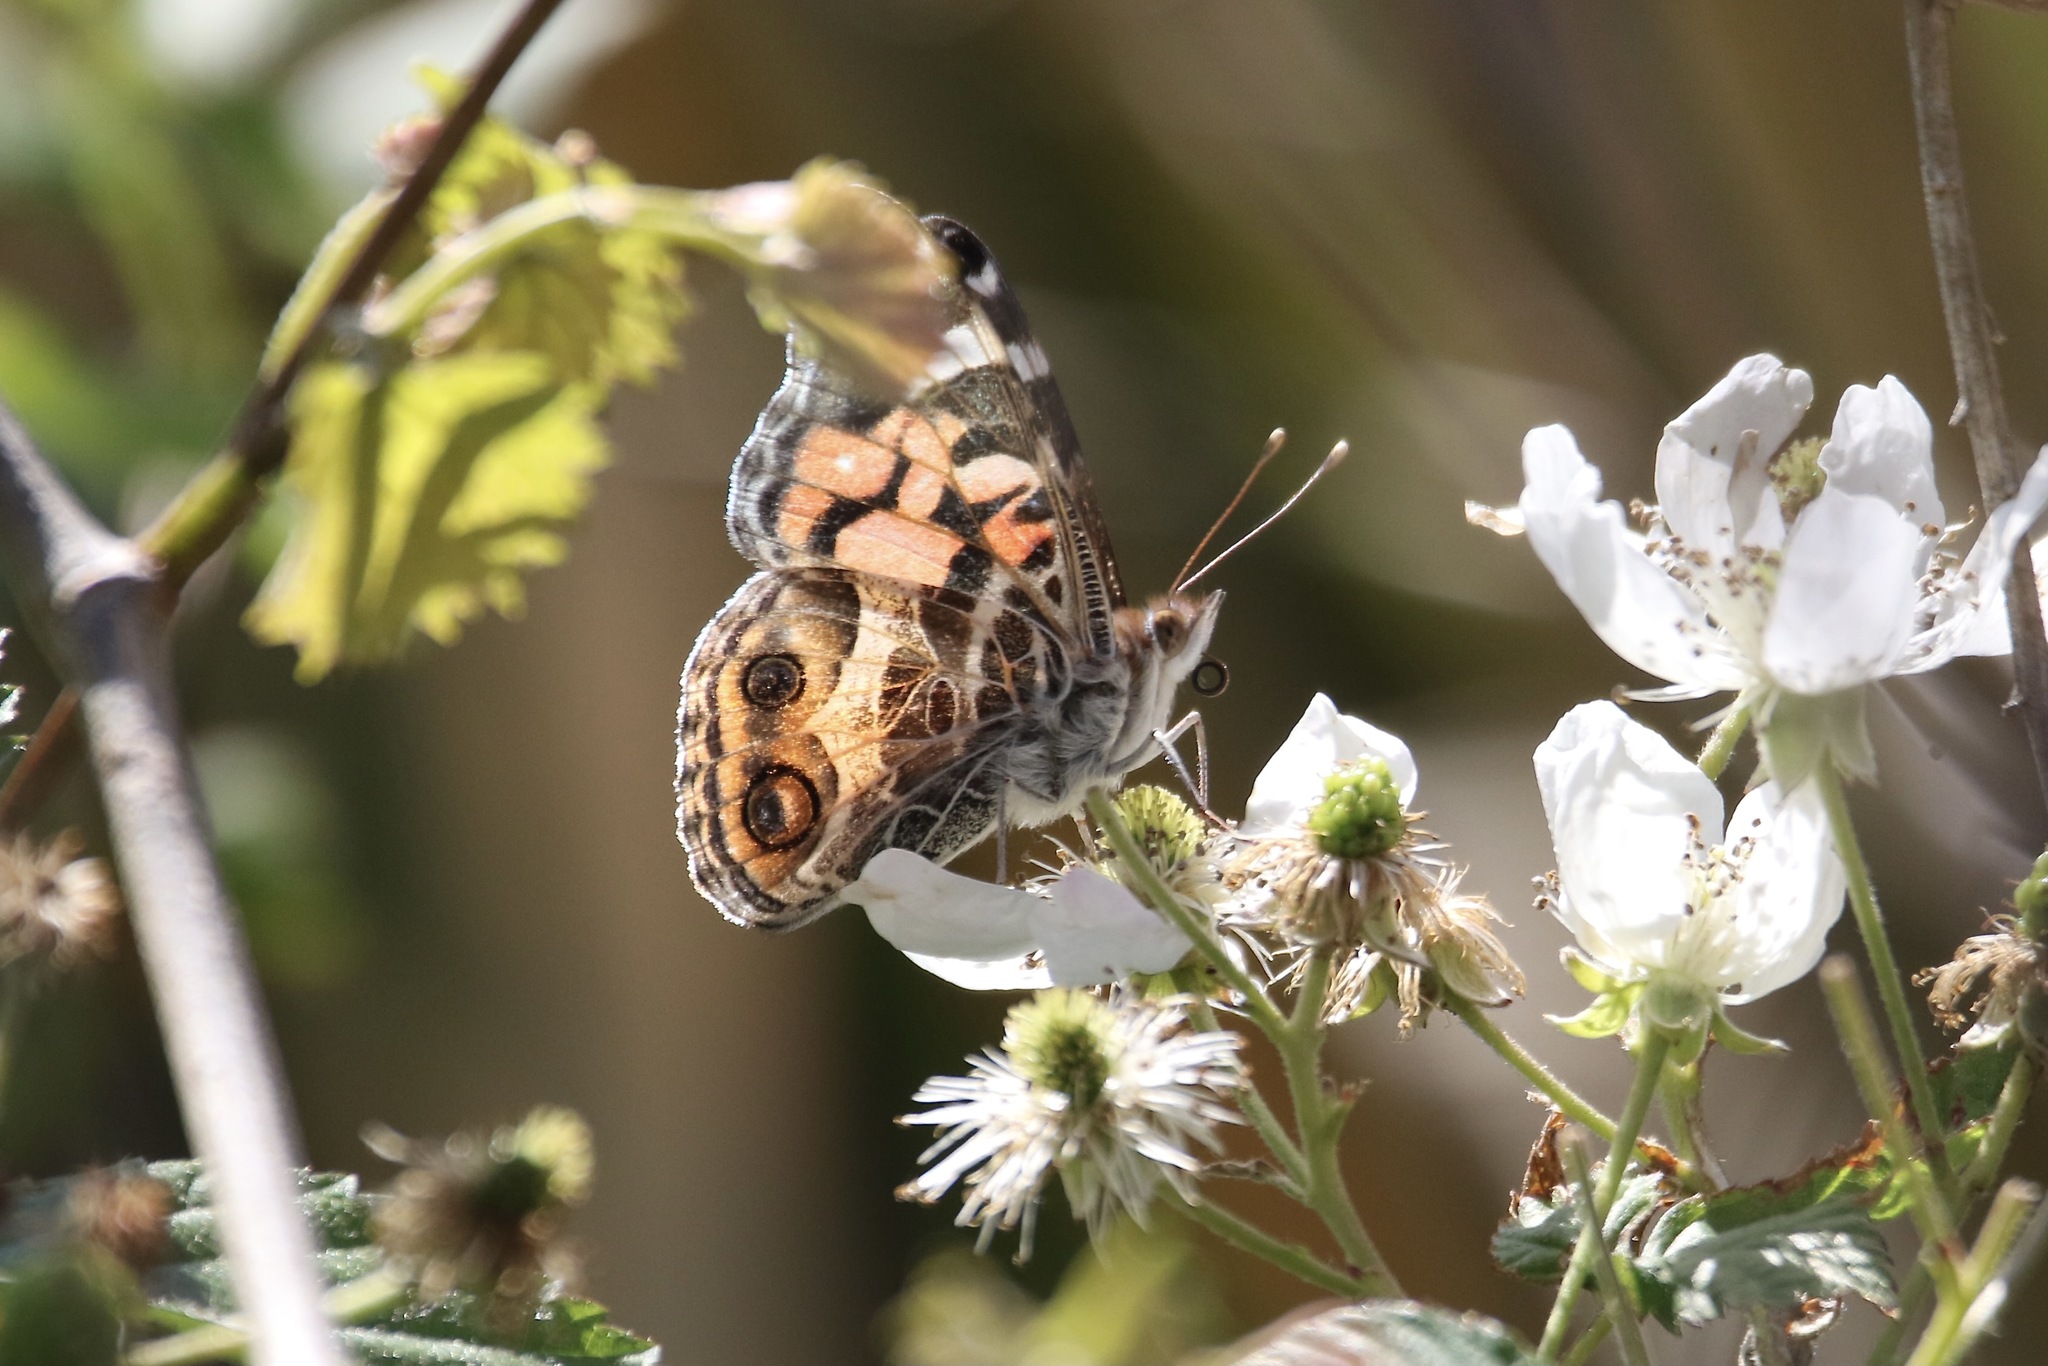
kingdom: Animalia
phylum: Arthropoda
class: Insecta
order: Lepidoptera
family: Nymphalidae
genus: Vanessa
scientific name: Vanessa virginiensis
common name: American lady
